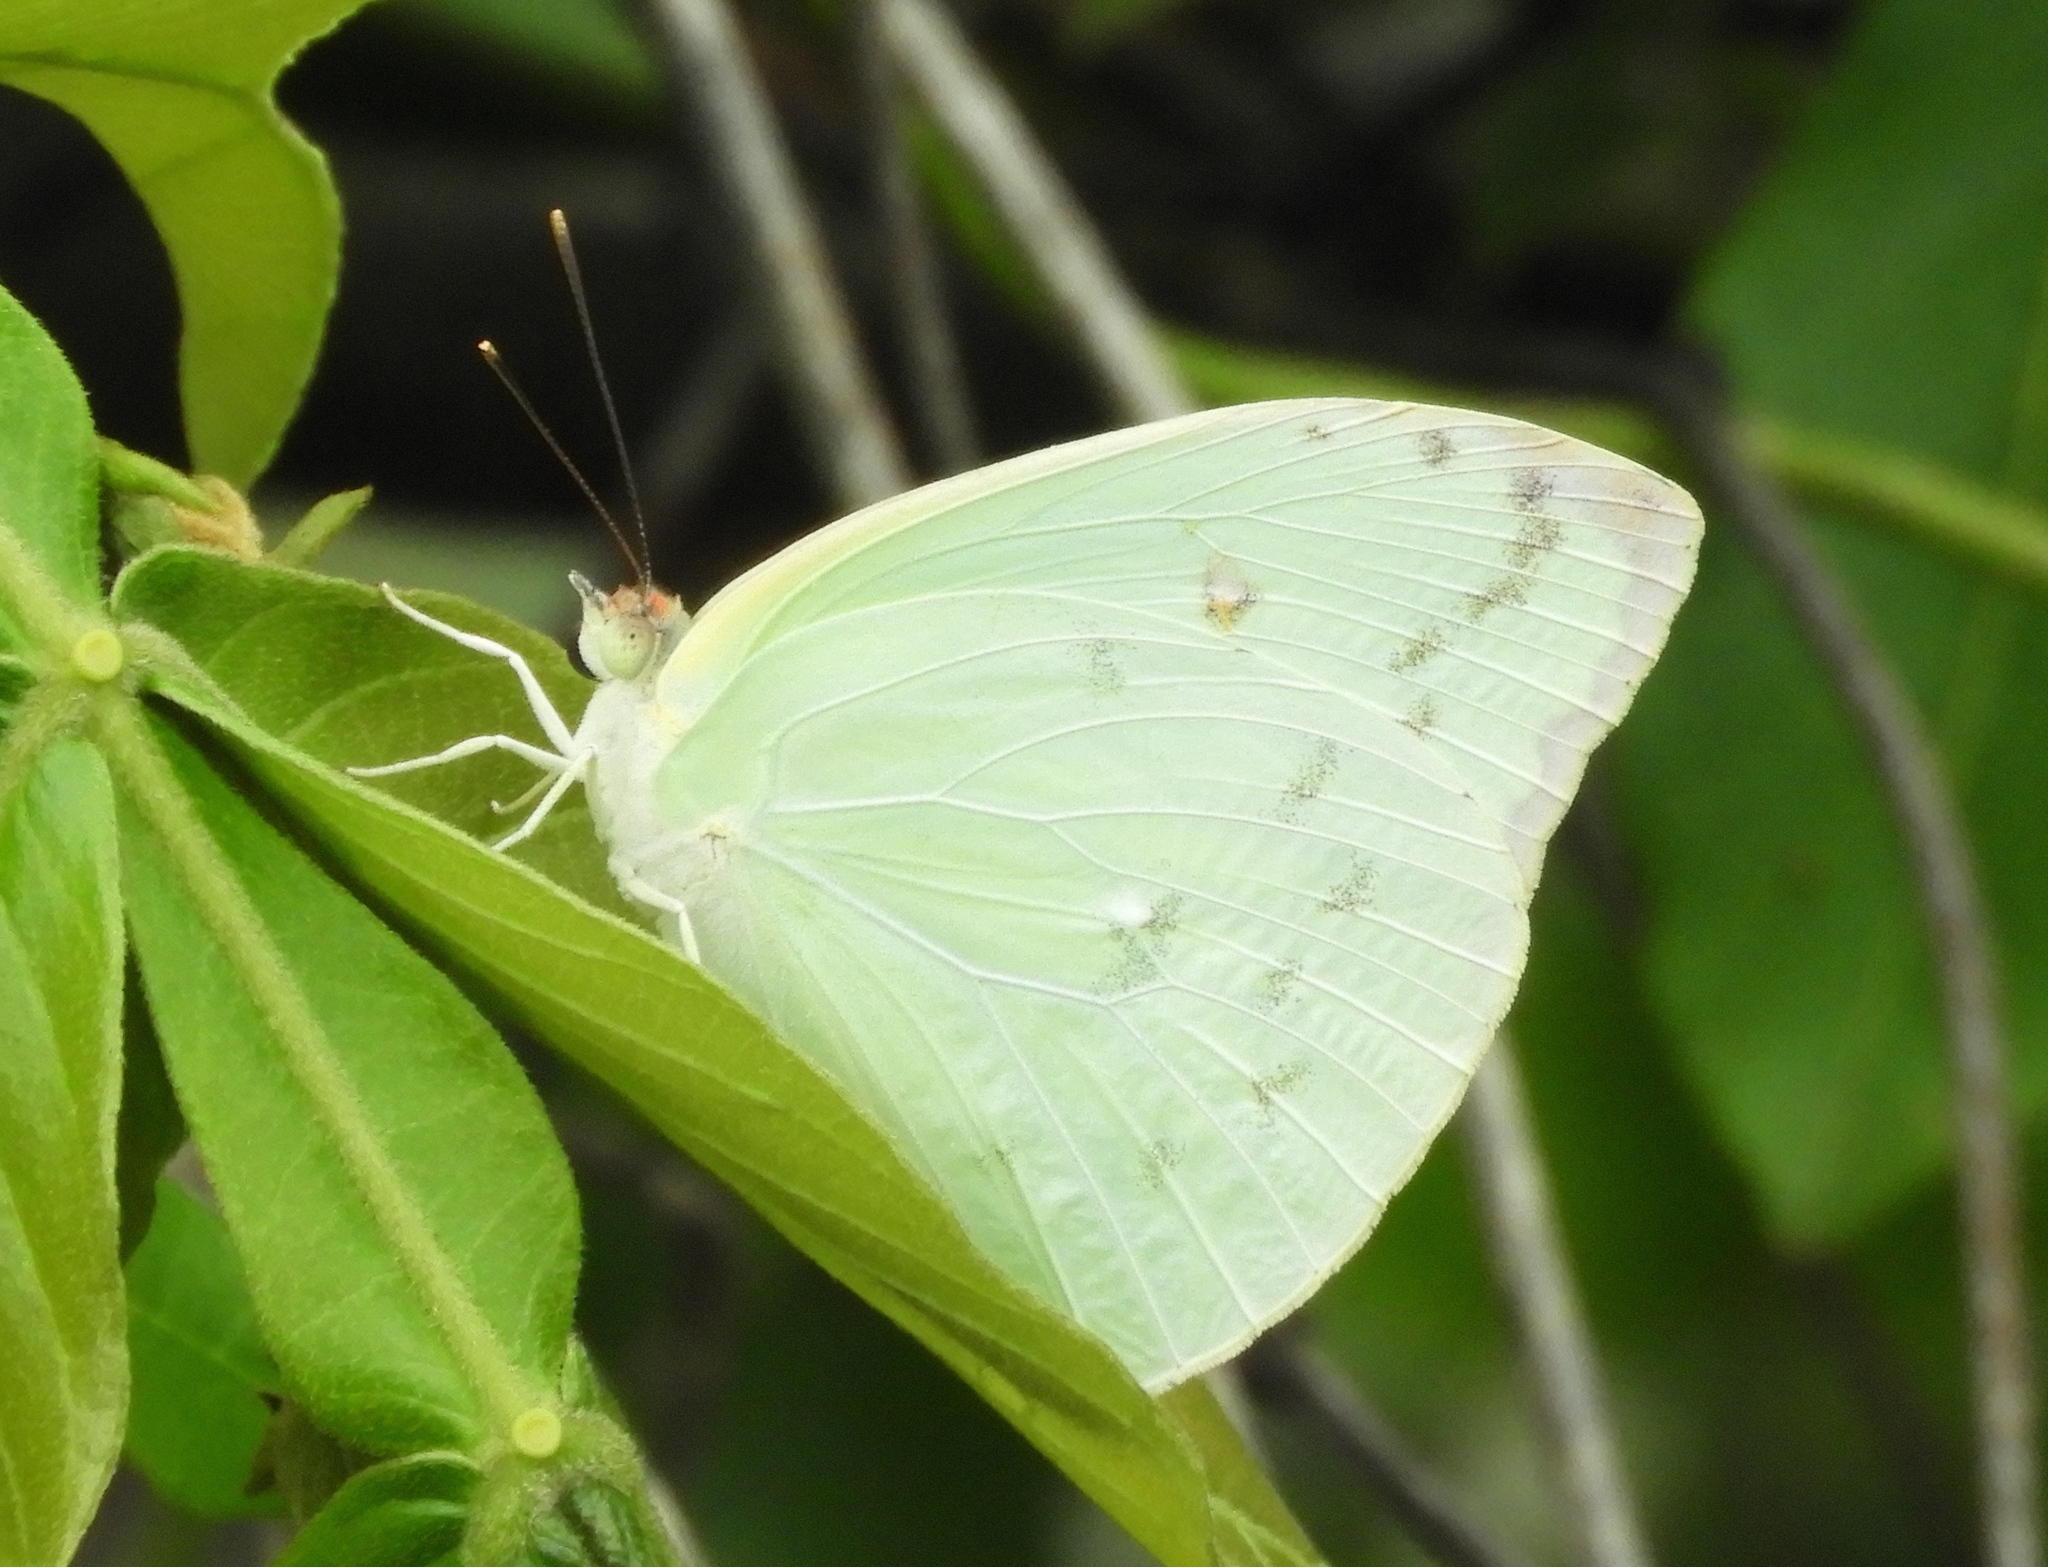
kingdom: Animalia
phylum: Arthropoda
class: Insecta
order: Lepidoptera
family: Pieridae
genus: Aphrissa
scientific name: Aphrissa statira
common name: Statira sulphur
